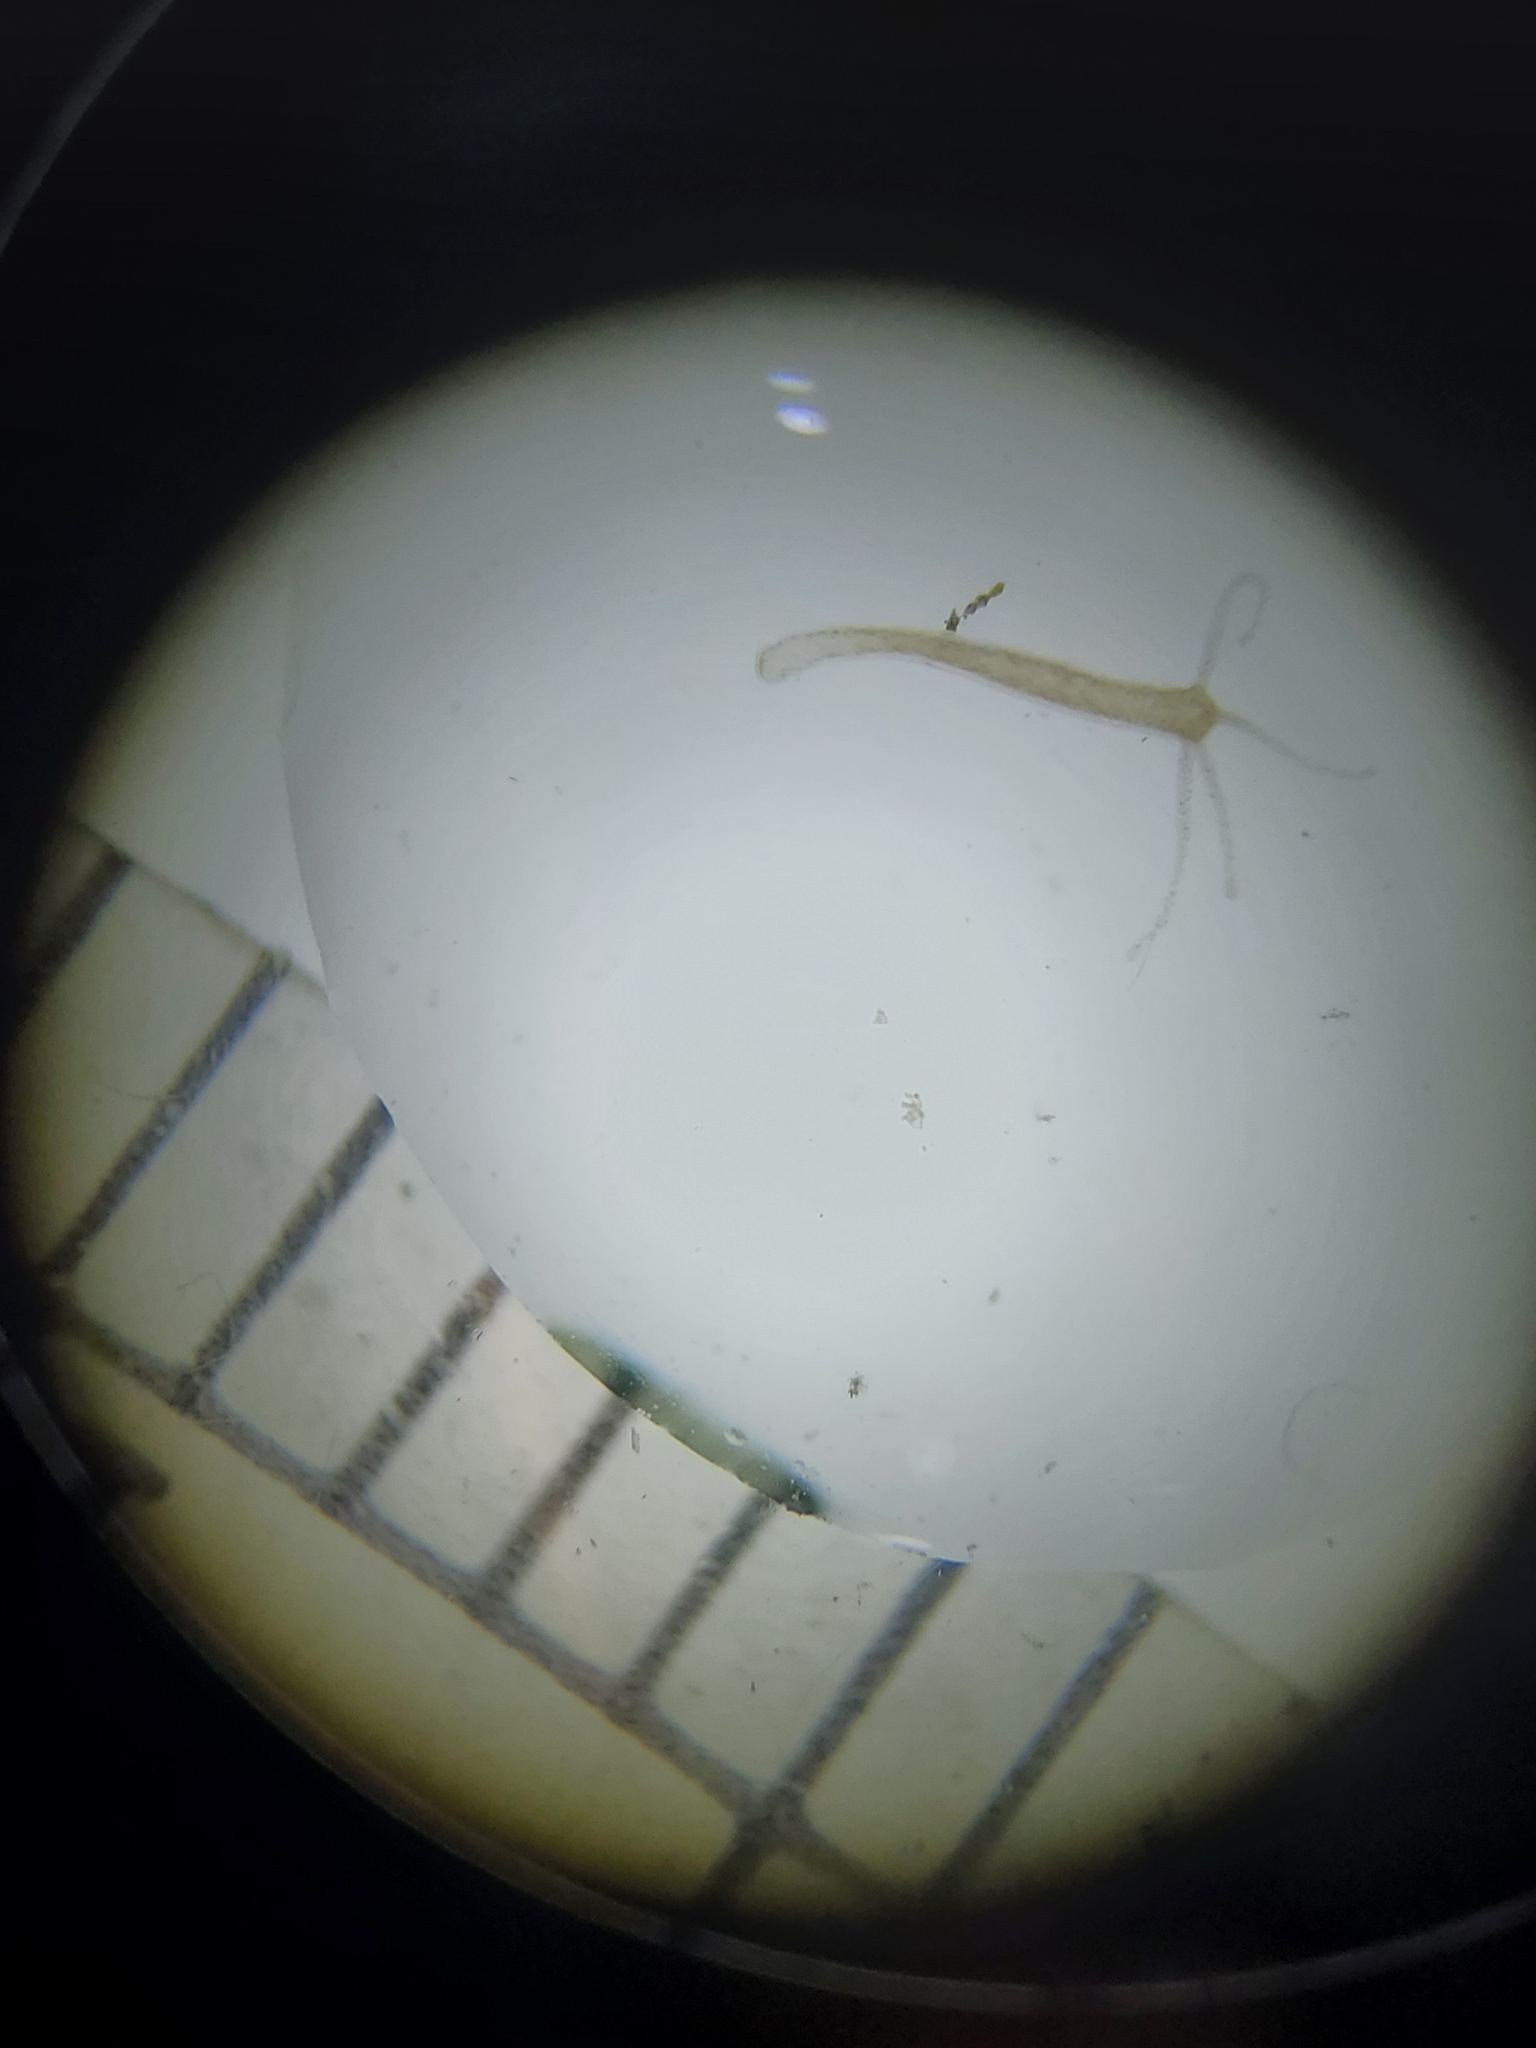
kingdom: Animalia
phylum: Cnidaria
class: Hydrozoa
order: Anthoathecata
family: Hydridae
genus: Hydra
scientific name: Hydra oligactis
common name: Brown hydra
